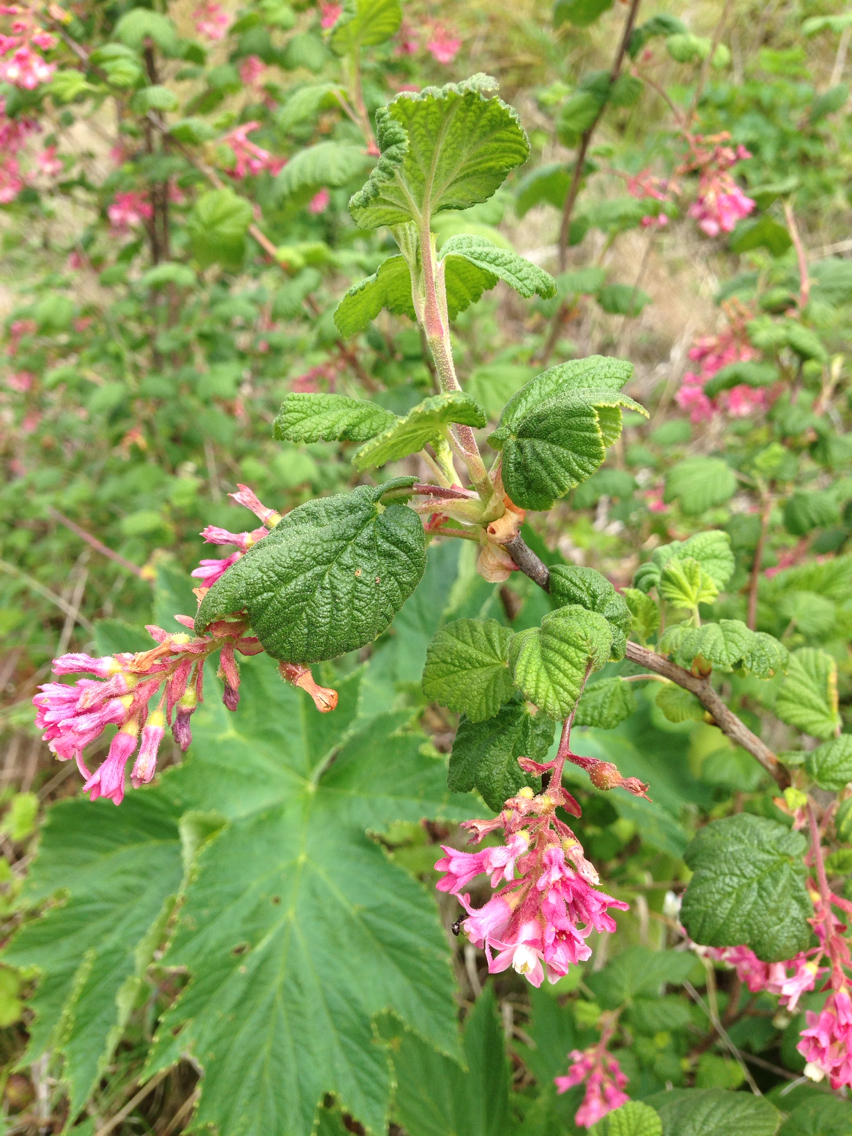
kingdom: Plantae
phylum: Tracheophyta
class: Magnoliopsida
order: Saxifragales
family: Grossulariaceae
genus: Ribes
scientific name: Ribes sanguineum
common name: Flowering currant
